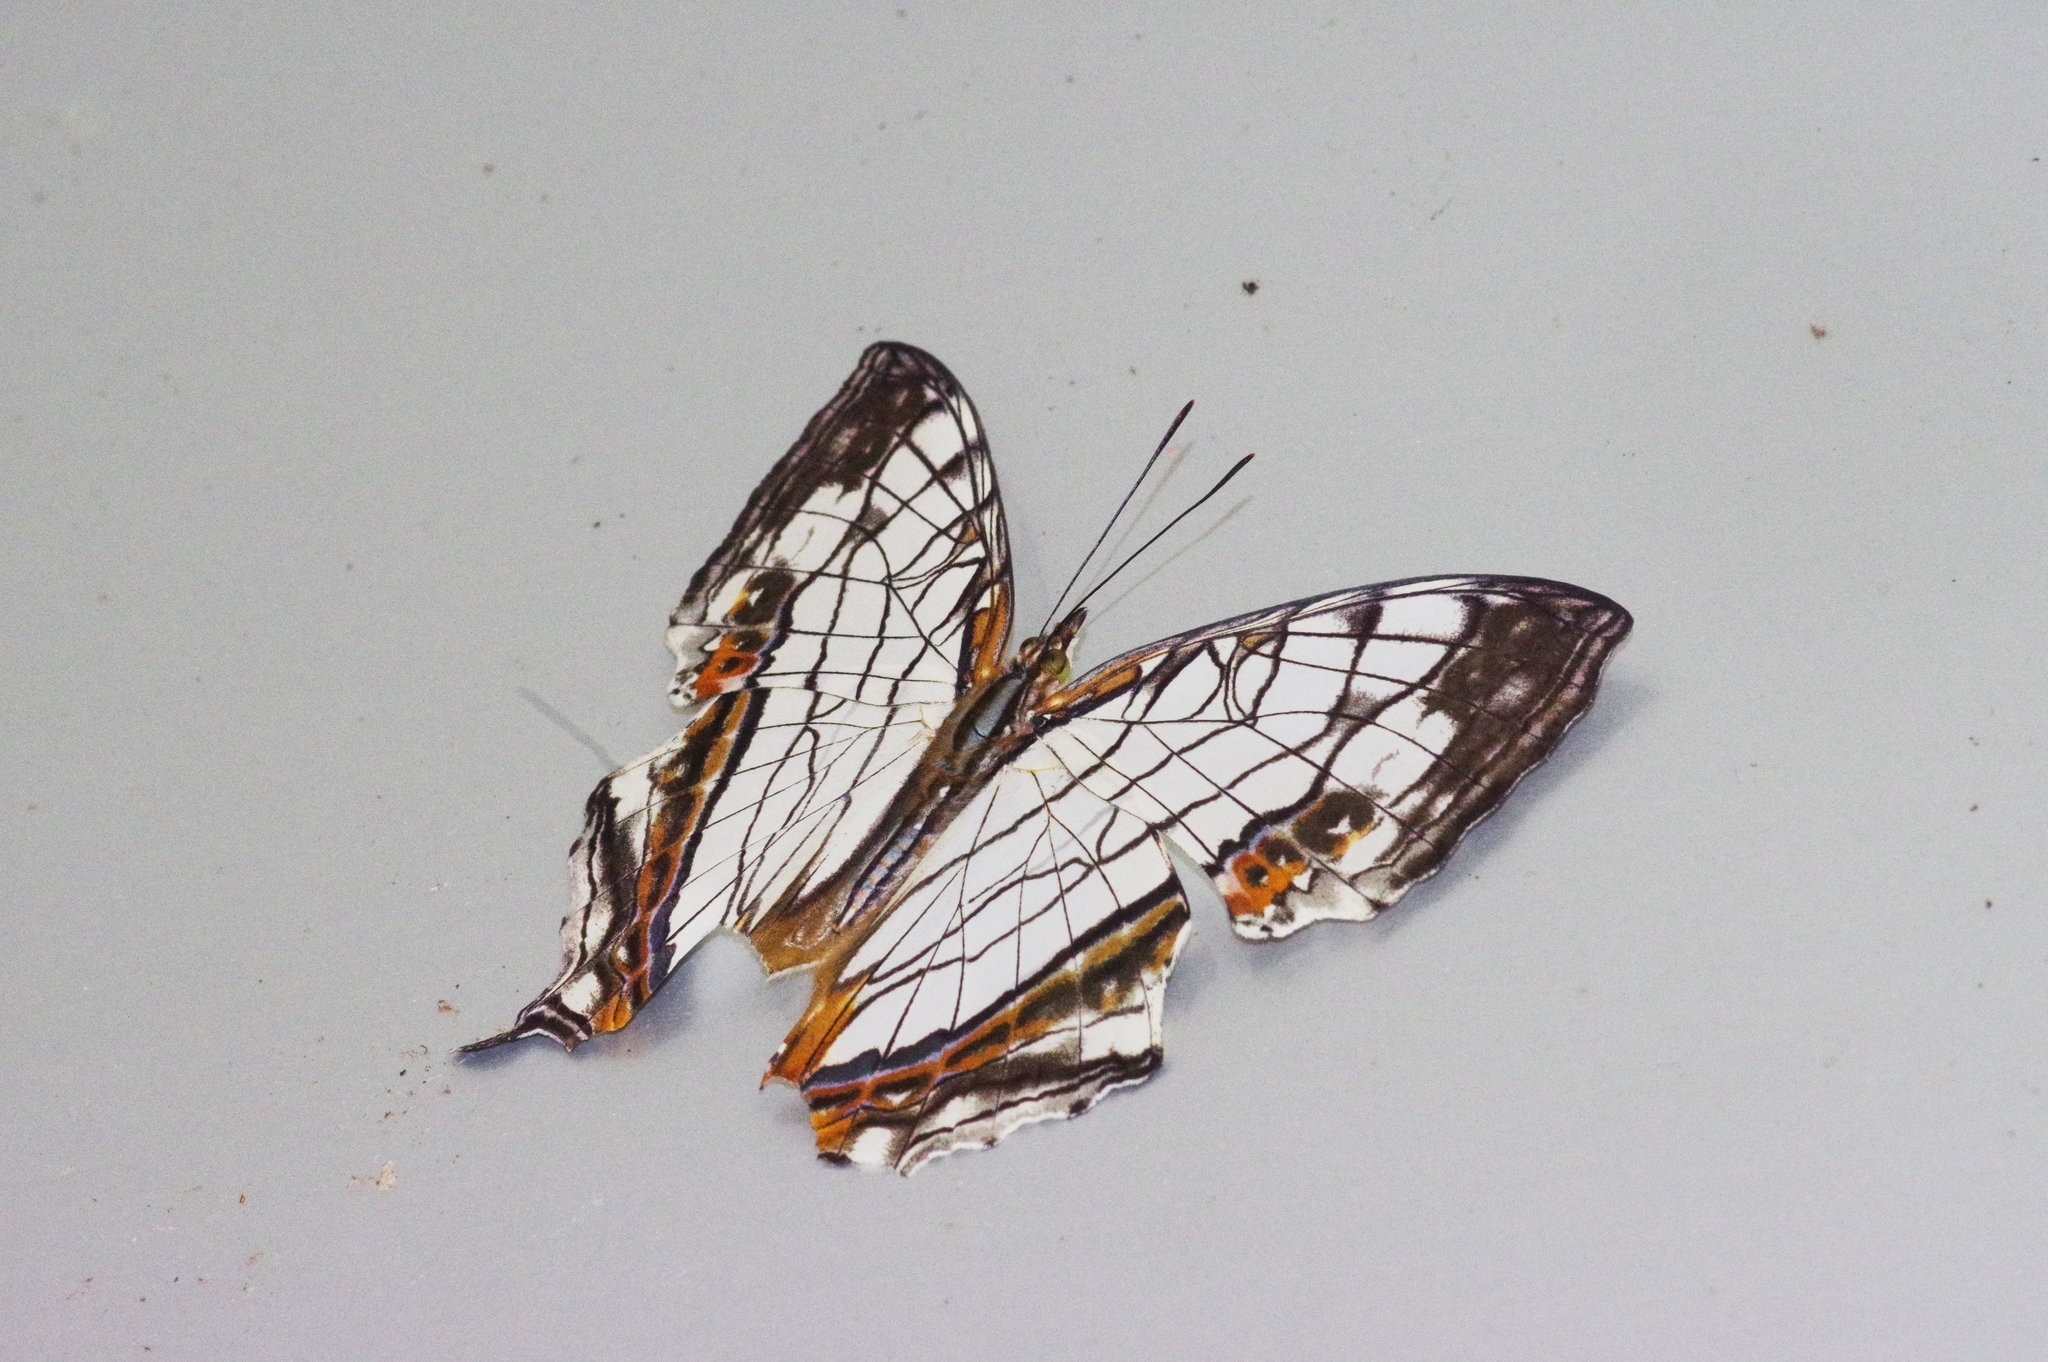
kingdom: Animalia
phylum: Arthropoda
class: Insecta
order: Lepidoptera
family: Nymphalidae
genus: Cyrestis
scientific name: Cyrestis thyodamas
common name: Common mapwing
